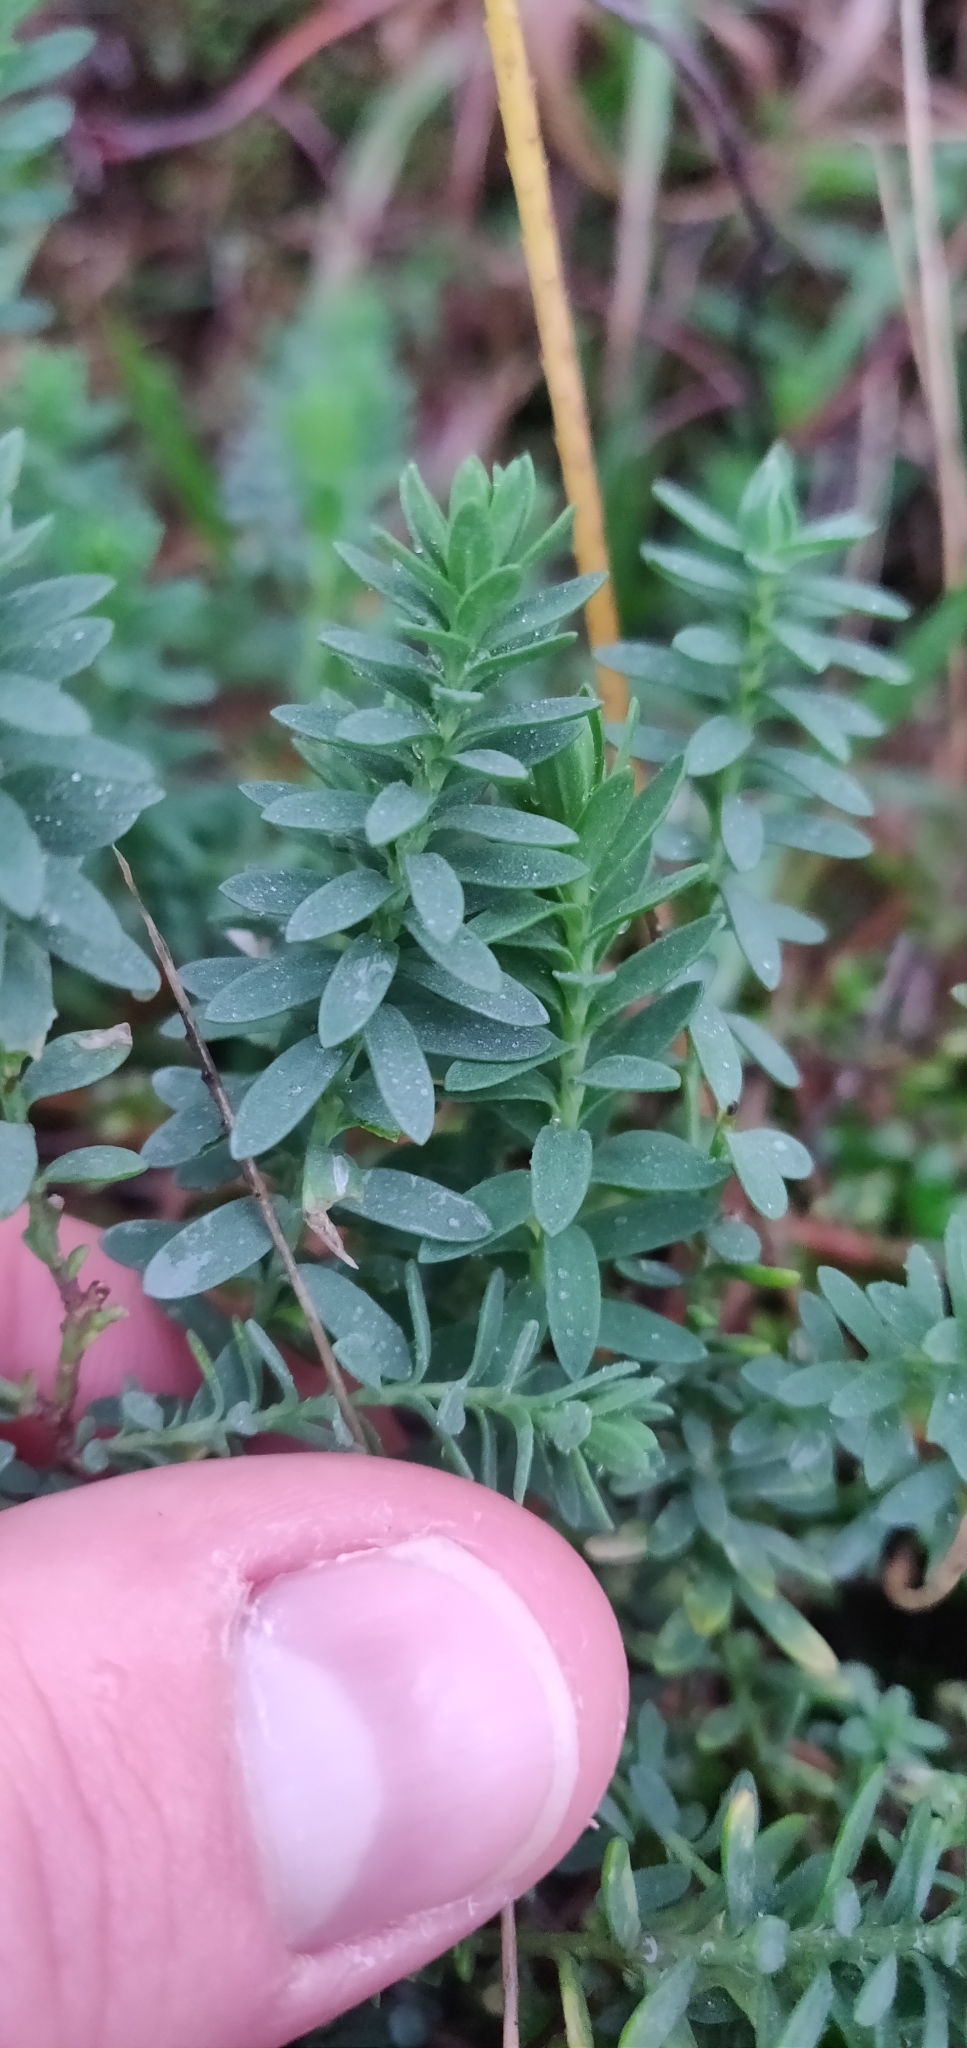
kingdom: Plantae
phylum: Tracheophyta
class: Magnoliopsida
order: Malpighiales
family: Linaceae
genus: Linum
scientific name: Linum monogynum
